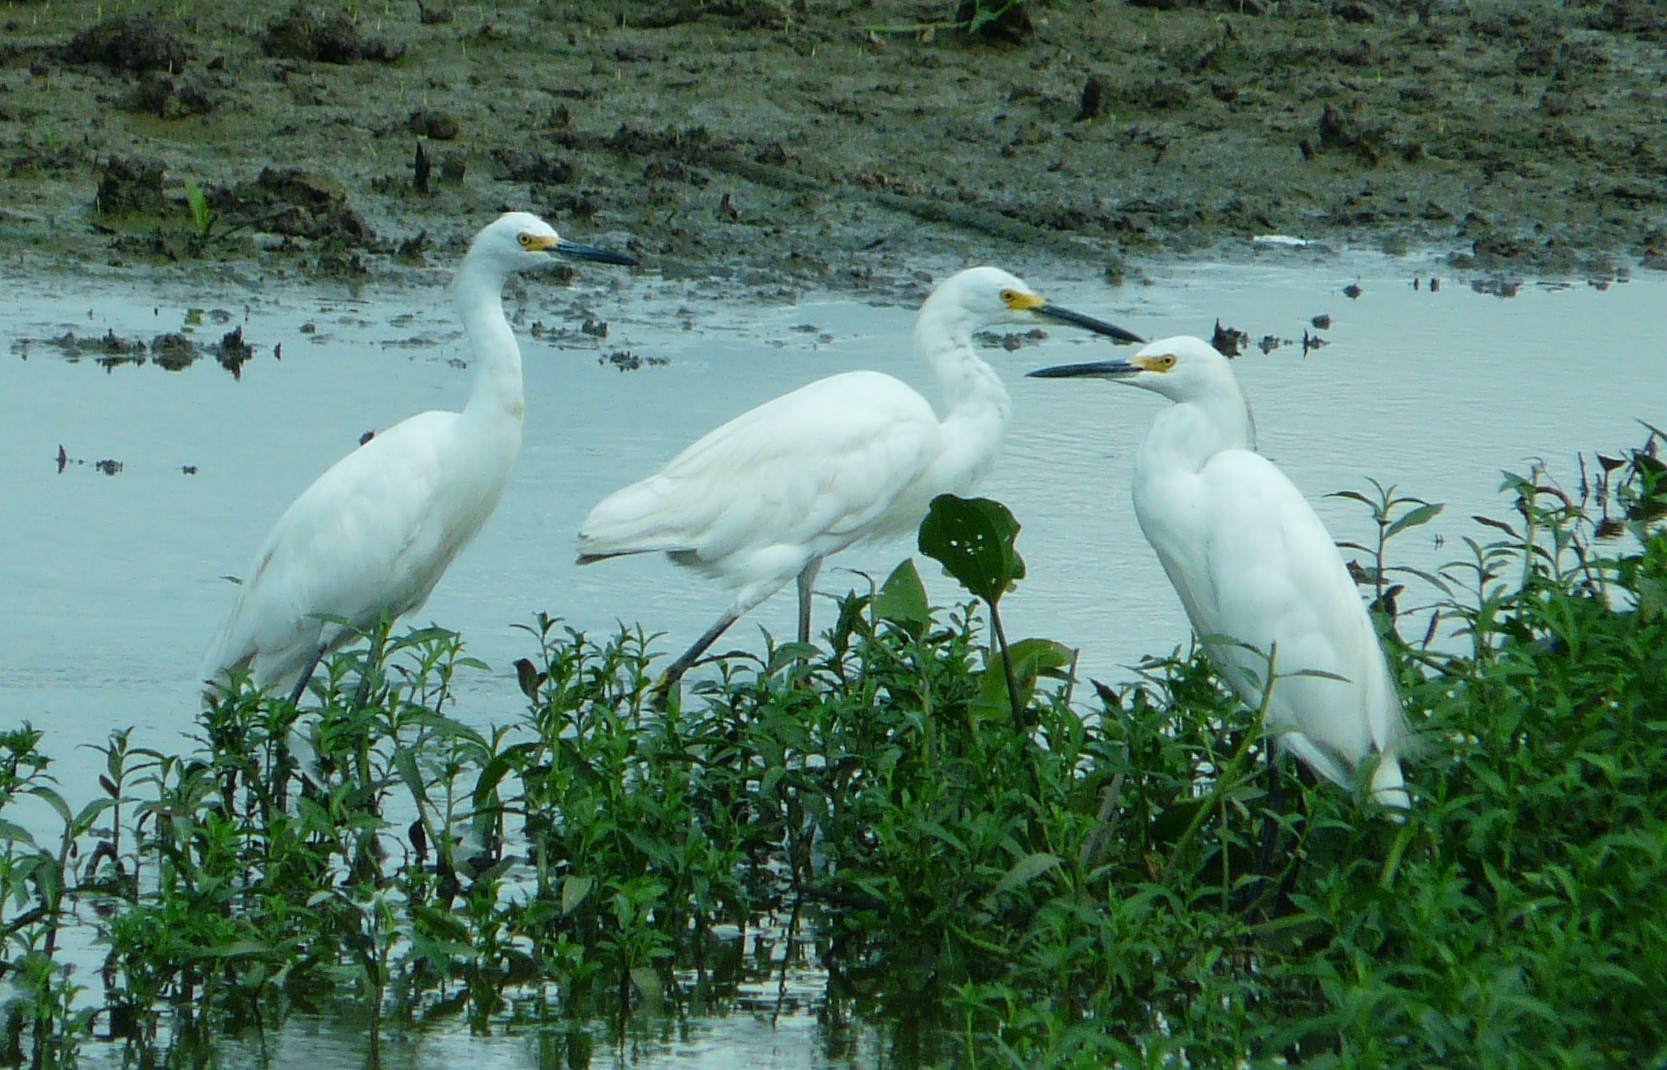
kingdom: Animalia
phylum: Chordata
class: Aves
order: Pelecaniformes
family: Ardeidae
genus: Egretta
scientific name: Egretta thula
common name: Snowy egret
